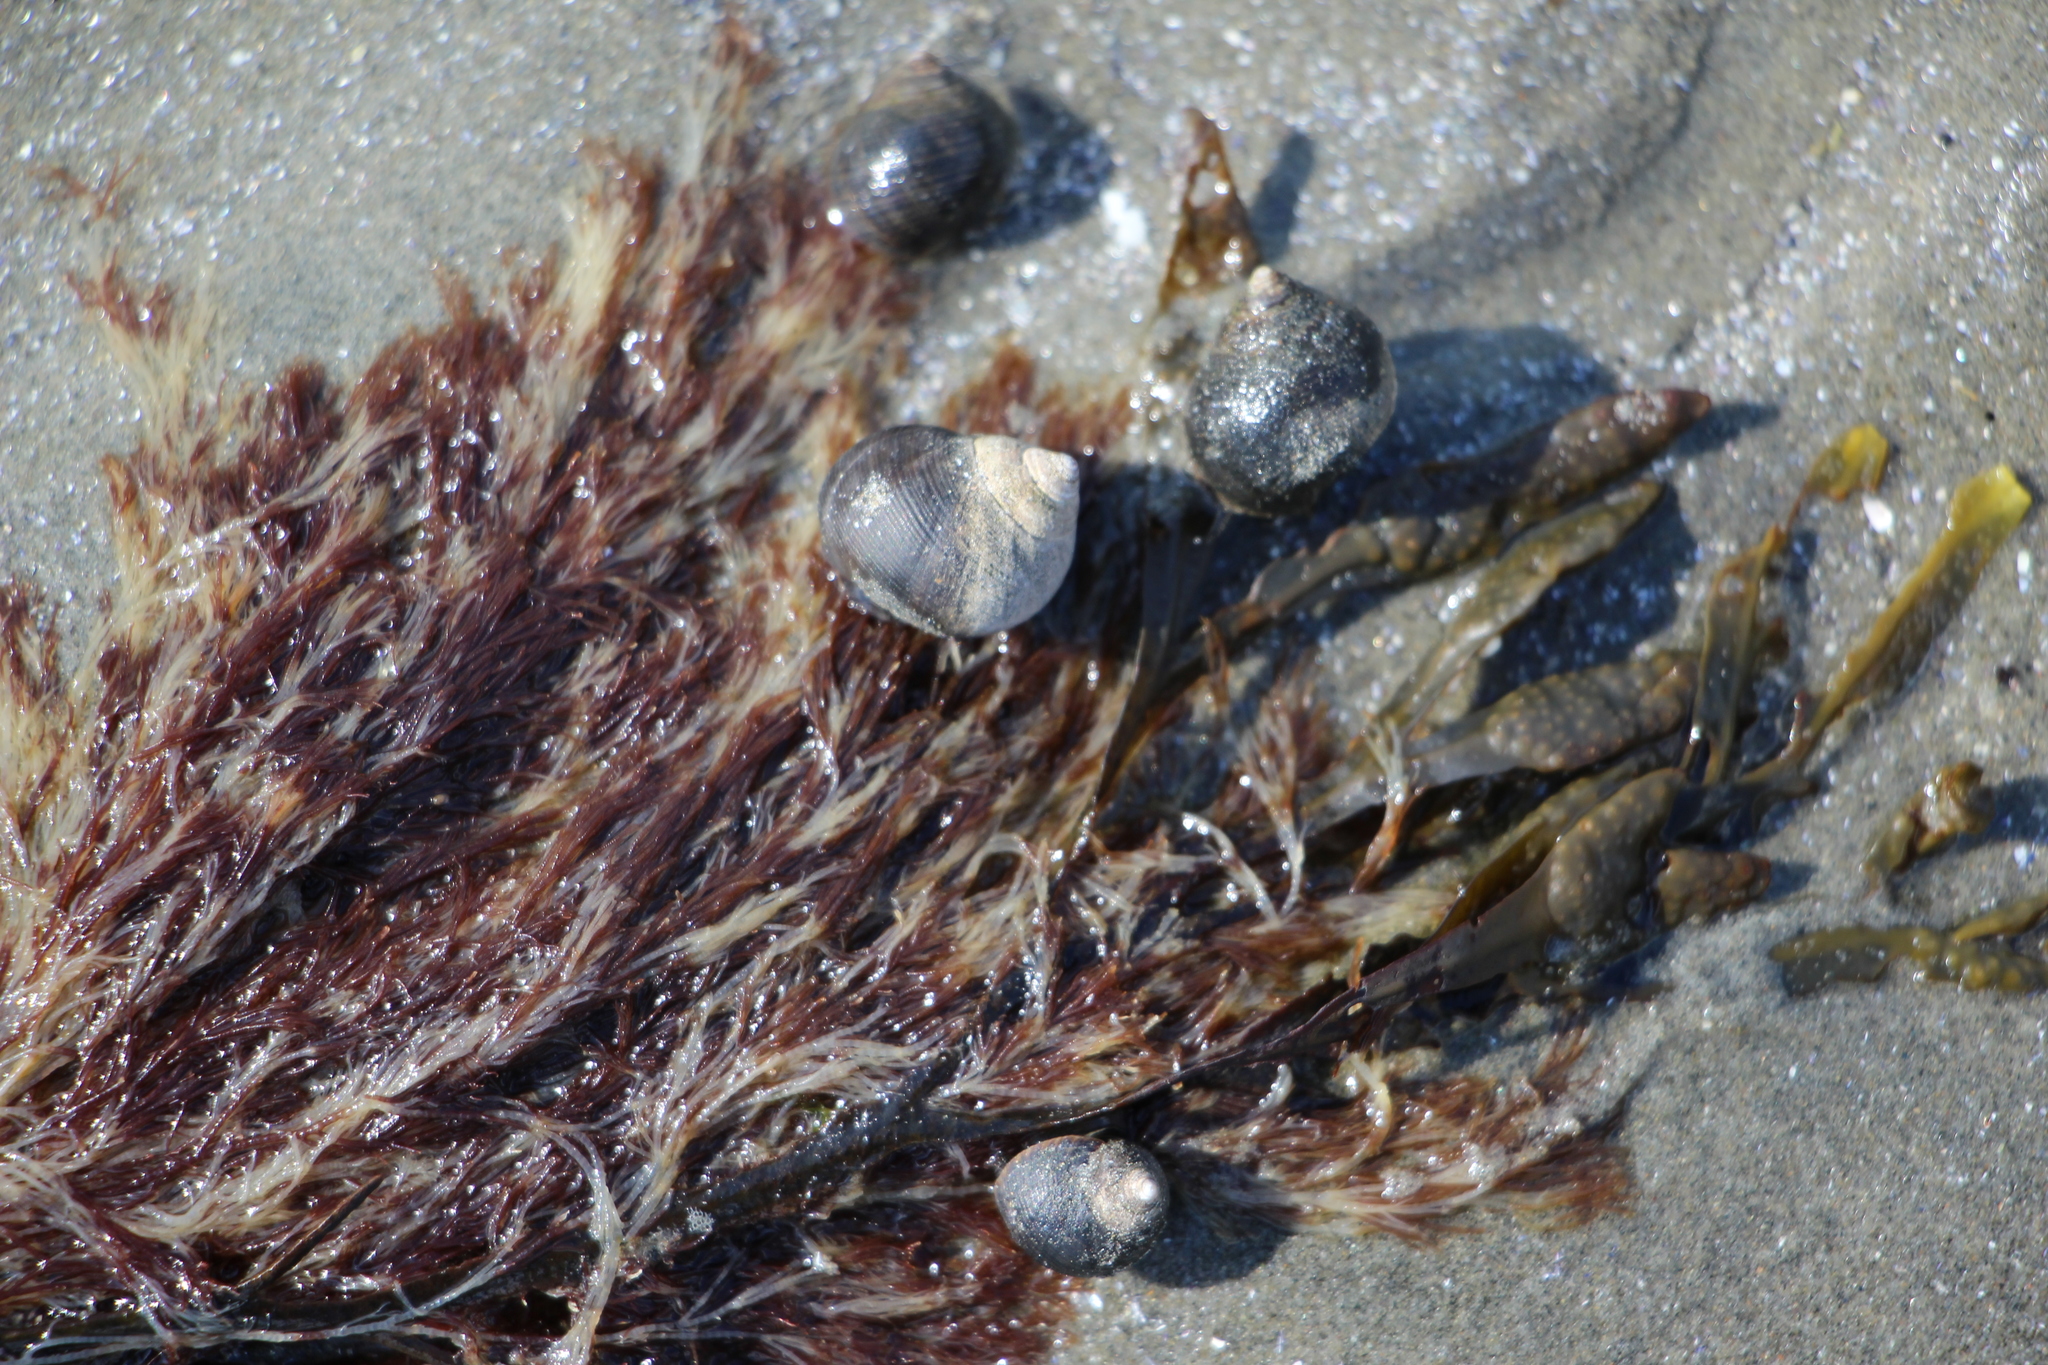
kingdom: Animalia
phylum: Mollusca
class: Gastropoda
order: Littorinimorpha
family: Littorinidae
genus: Littorina
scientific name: Littorina littorea
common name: Common periwinkle
